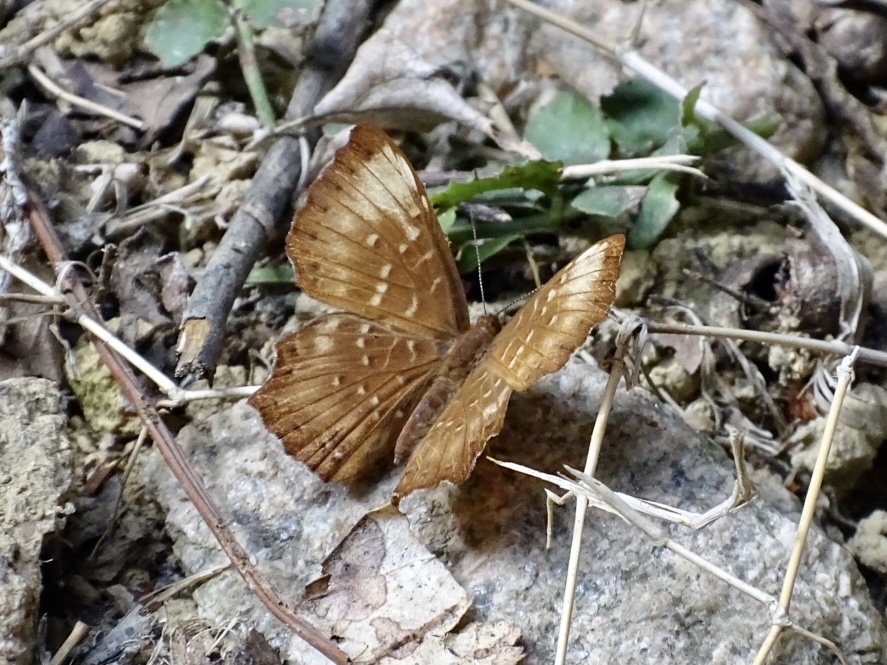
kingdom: Animalia
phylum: Arthropoda
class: Insecta
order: Lepidoptera
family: Riodinidae
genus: Zemeros
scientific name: Zemeros flegyas
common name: Punchinello
